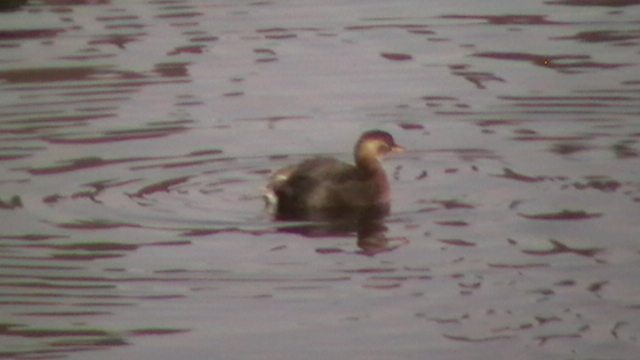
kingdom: Animalia
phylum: Chordata
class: Aves
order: Podicipediformes
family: Podicipedidae
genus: Tachybaptus
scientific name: Tachybaptus ruficollis
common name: Little grebe
